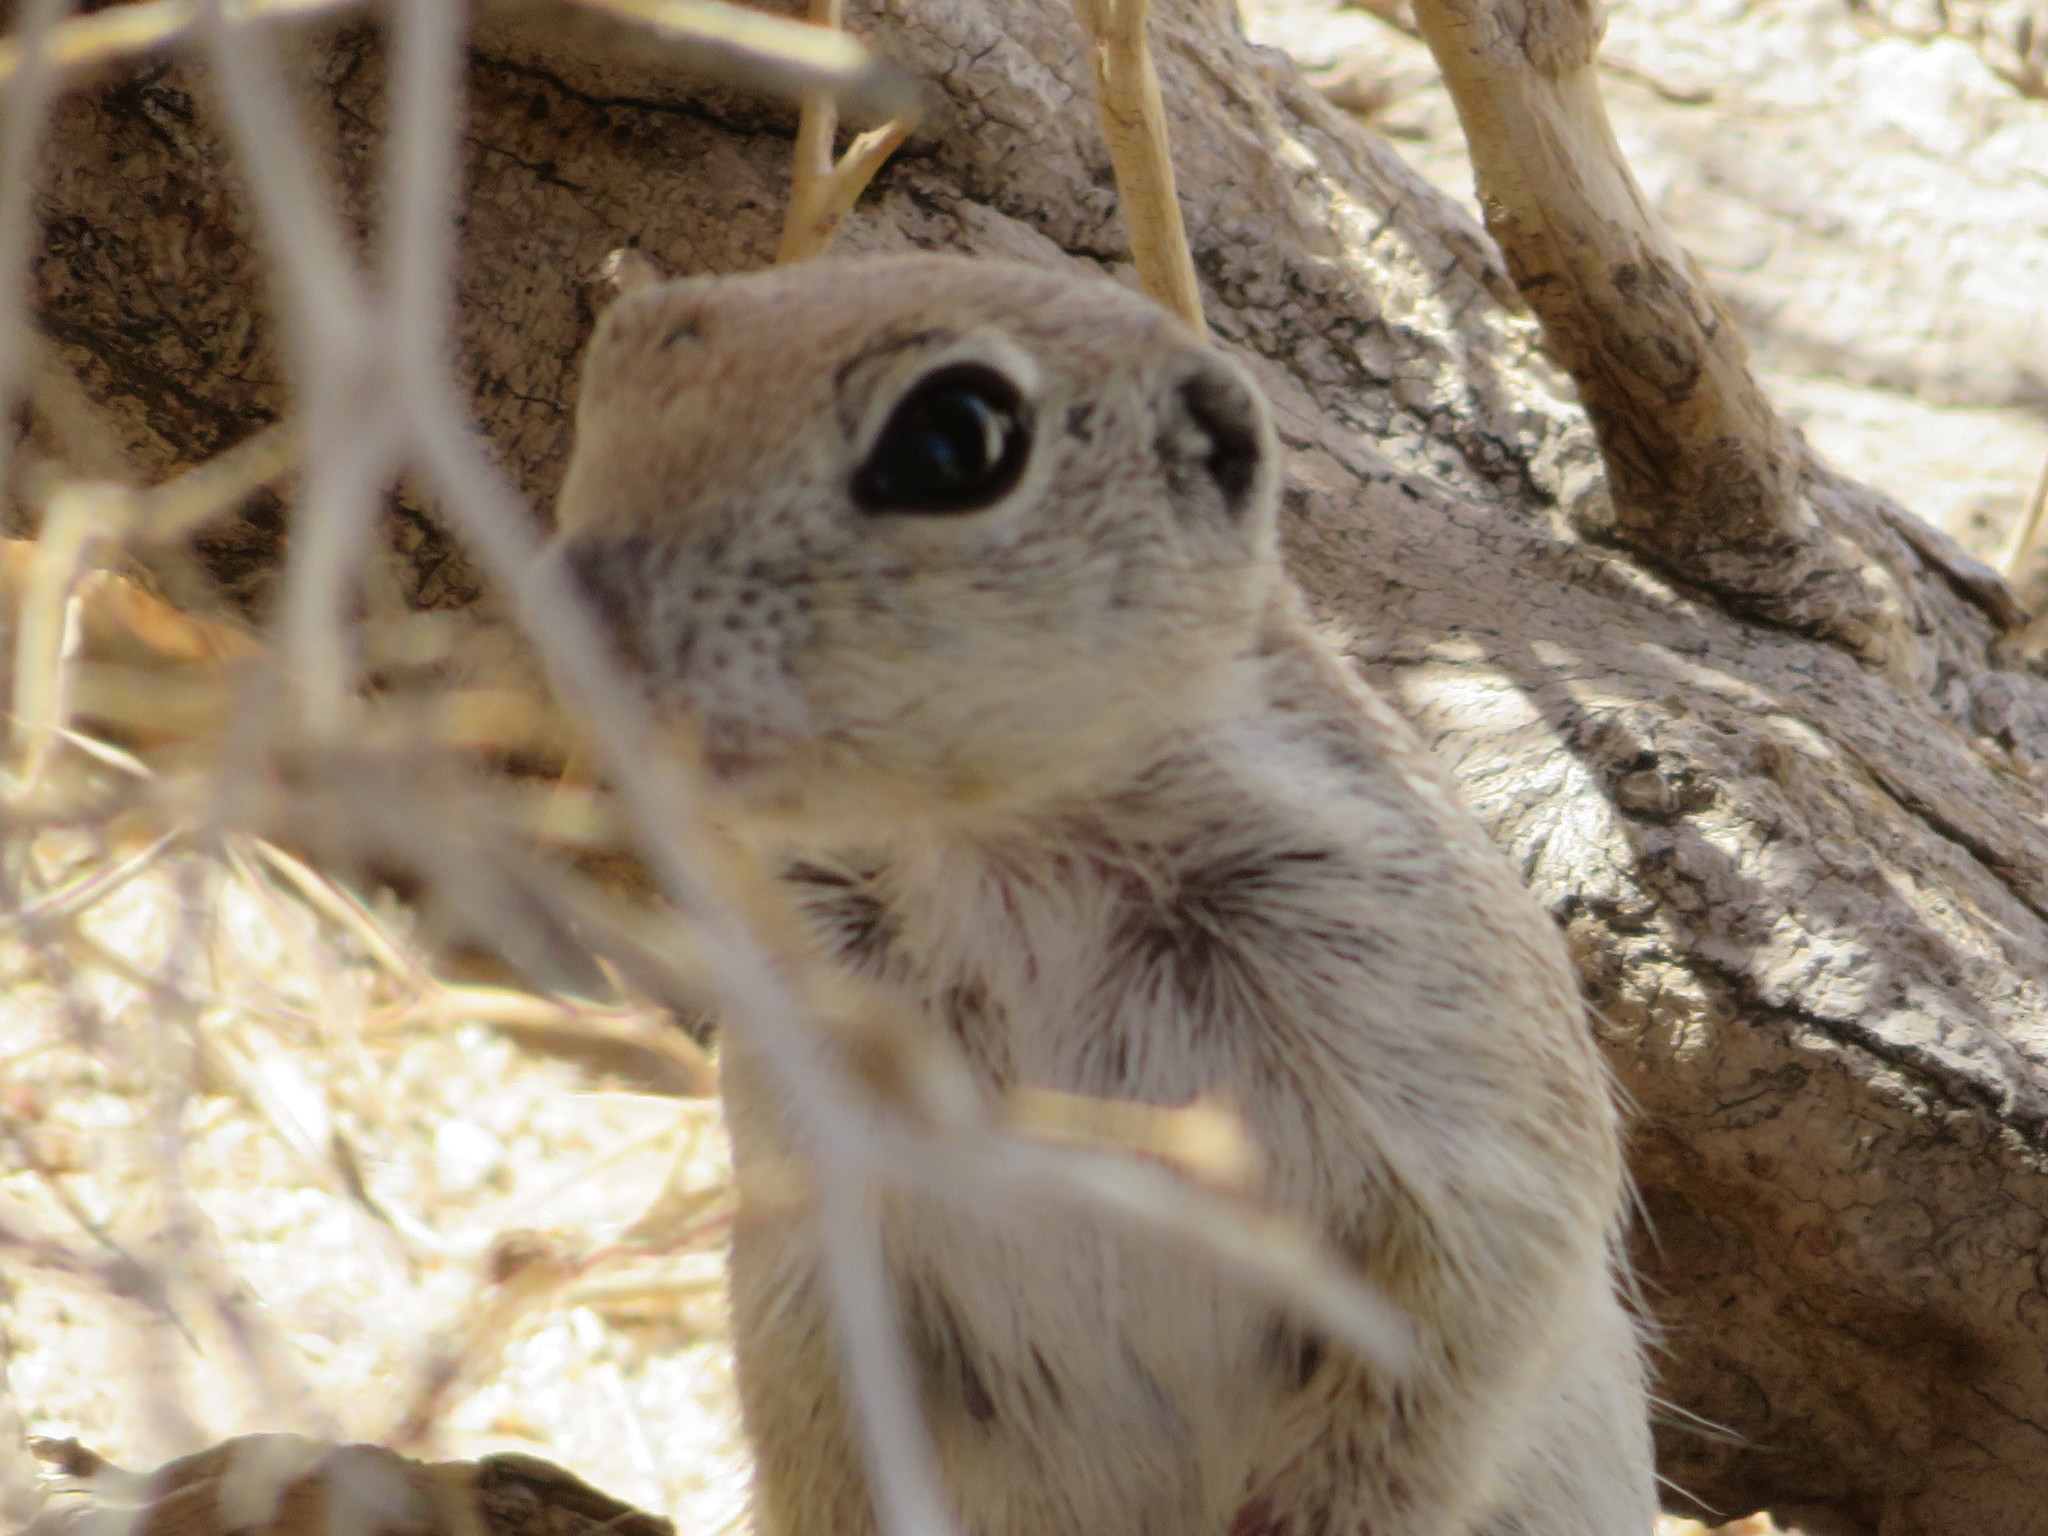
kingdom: Animalia
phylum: Chordata
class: Mammalia
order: Rodentia
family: Sciuridae
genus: Xerospermophilus
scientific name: Xerospermophilus tereticaudus
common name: Round-tailed ground squirrel
